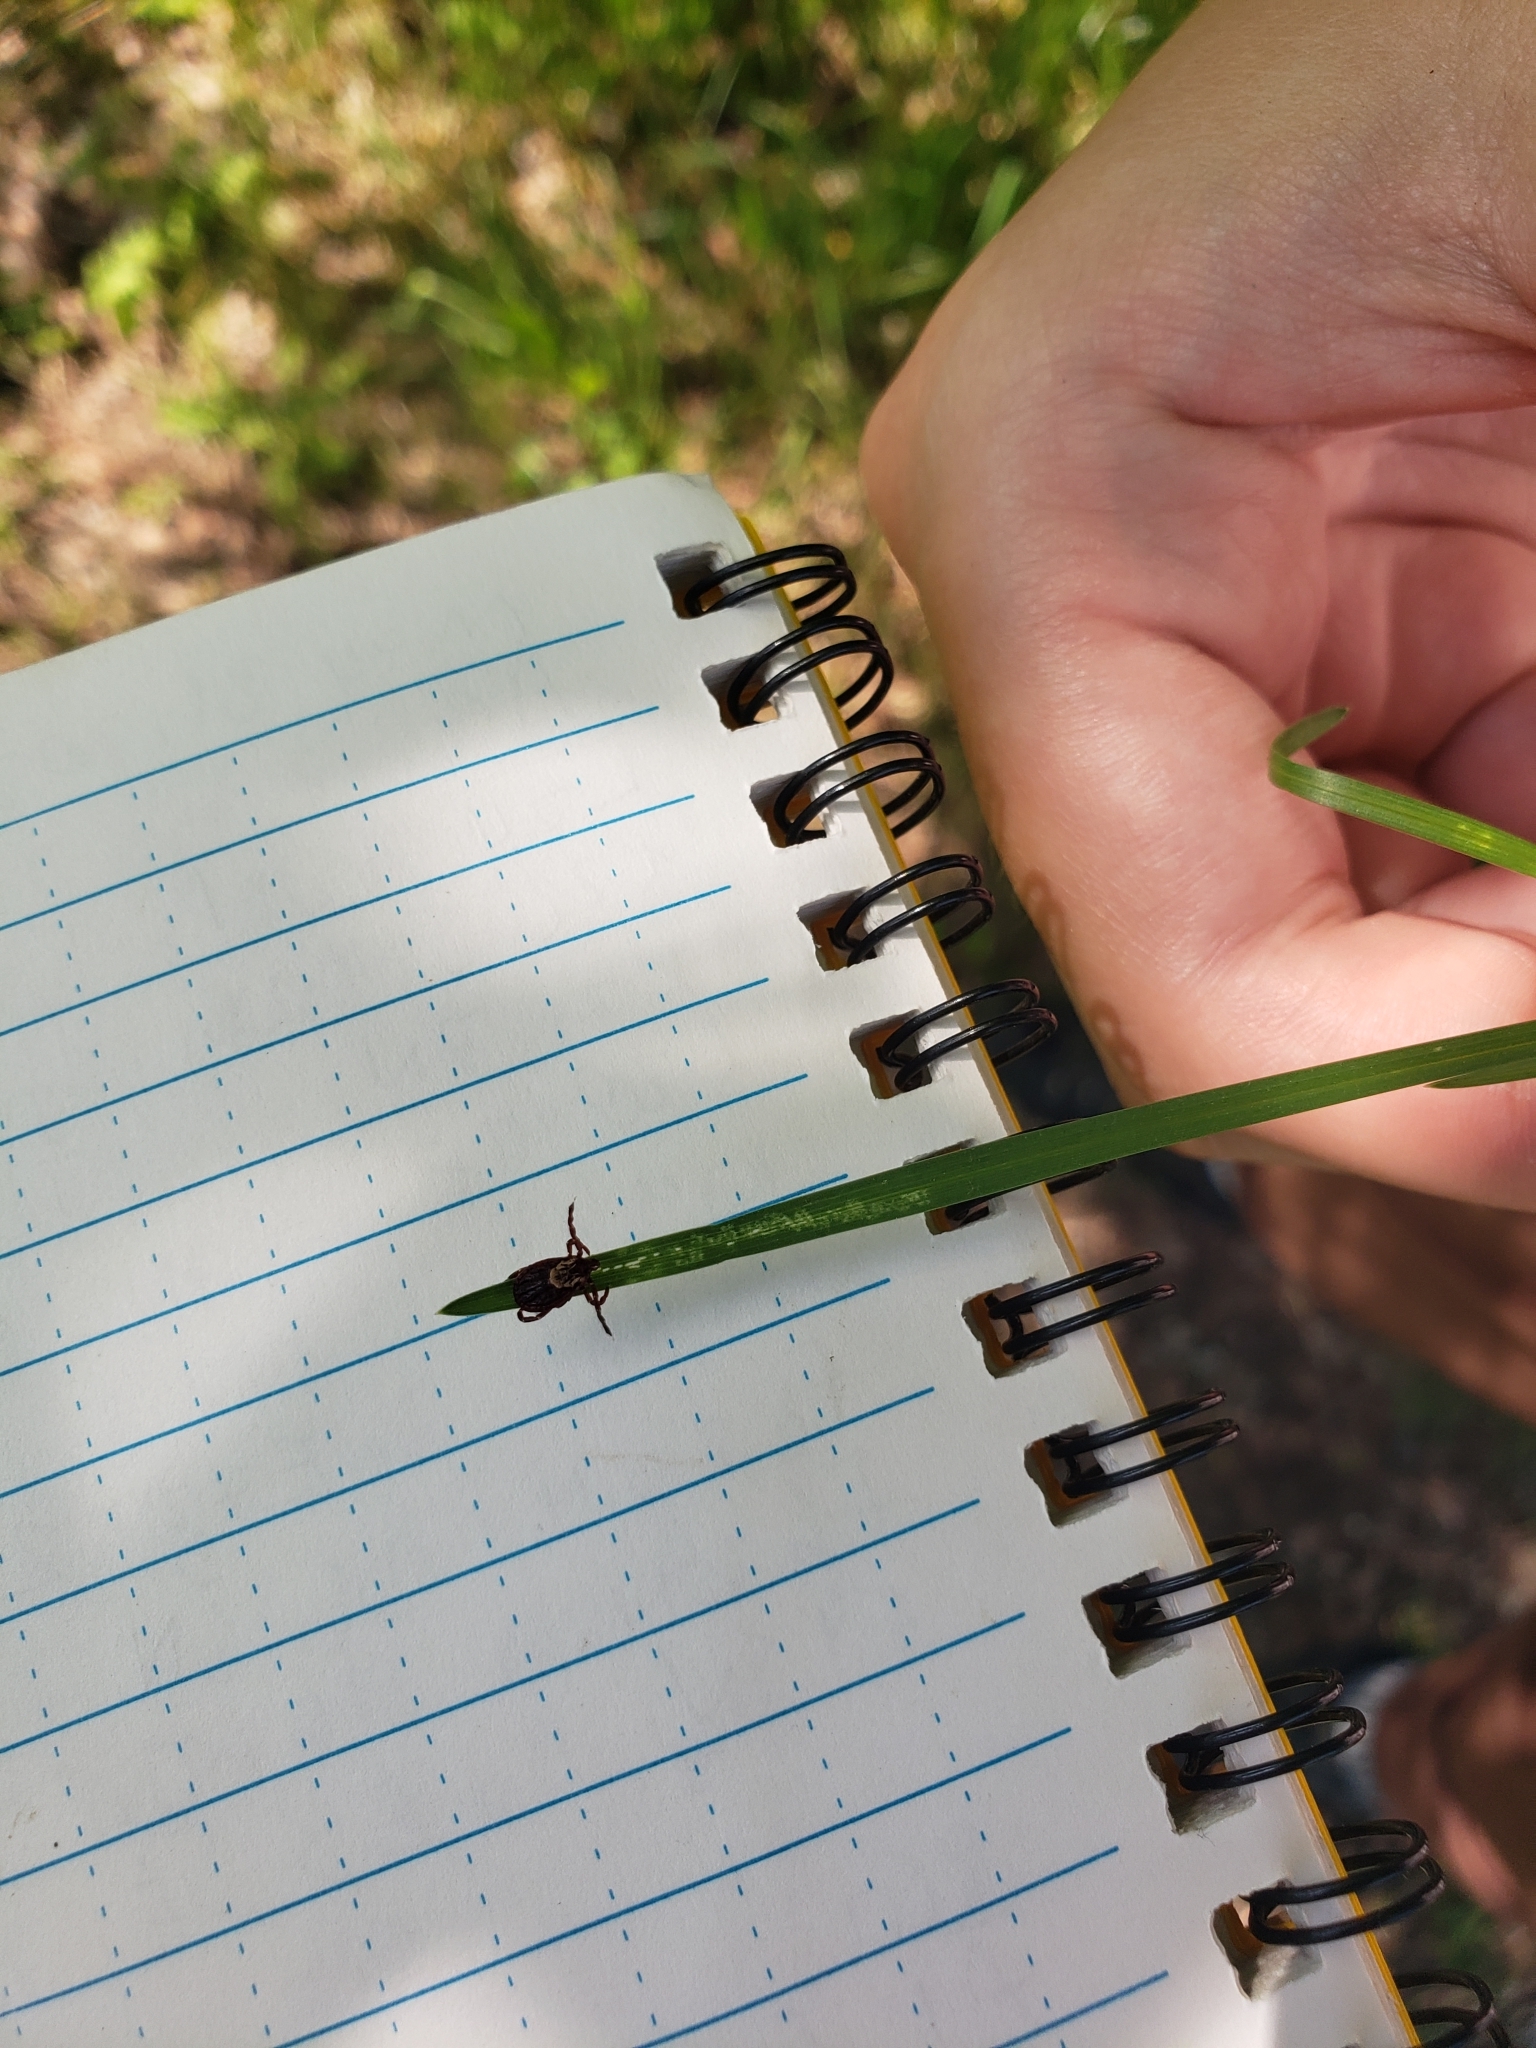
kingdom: Animalia
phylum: Arthropoda
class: Arachnida
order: Ixodida
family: Ixodidae
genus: Dermacentor
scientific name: Dermacentor variabilis
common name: American dog tick
